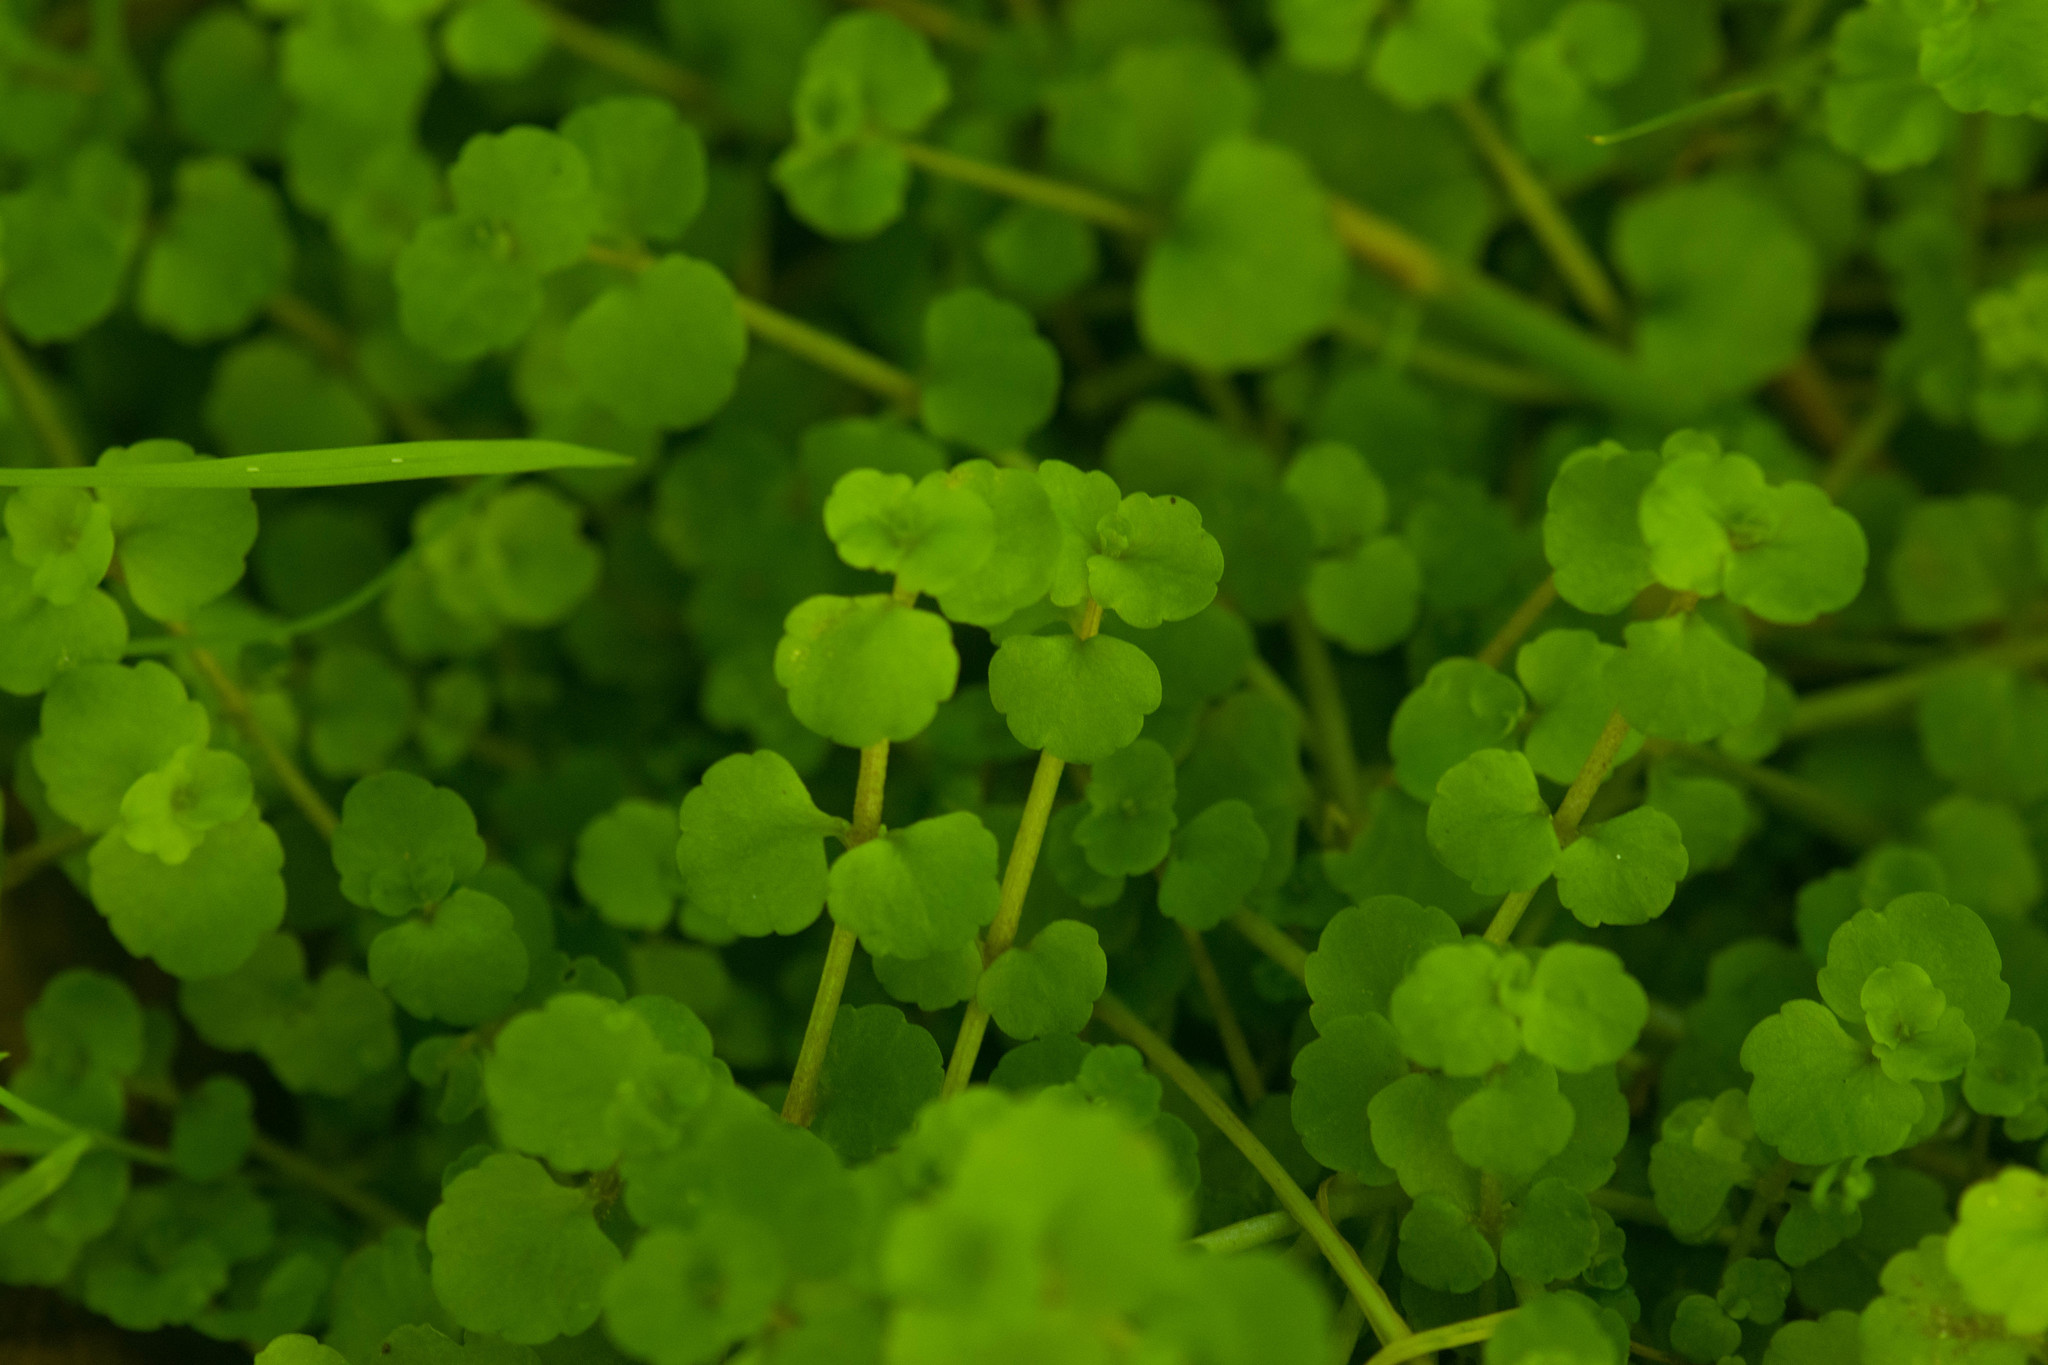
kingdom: Plantae
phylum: Tracheophyta
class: Magnoliopsida
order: Saxifragales
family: Saxifragaceae
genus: Chrysosplenium
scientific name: Chrysosplenium americanum
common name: American golden-saxifrage
